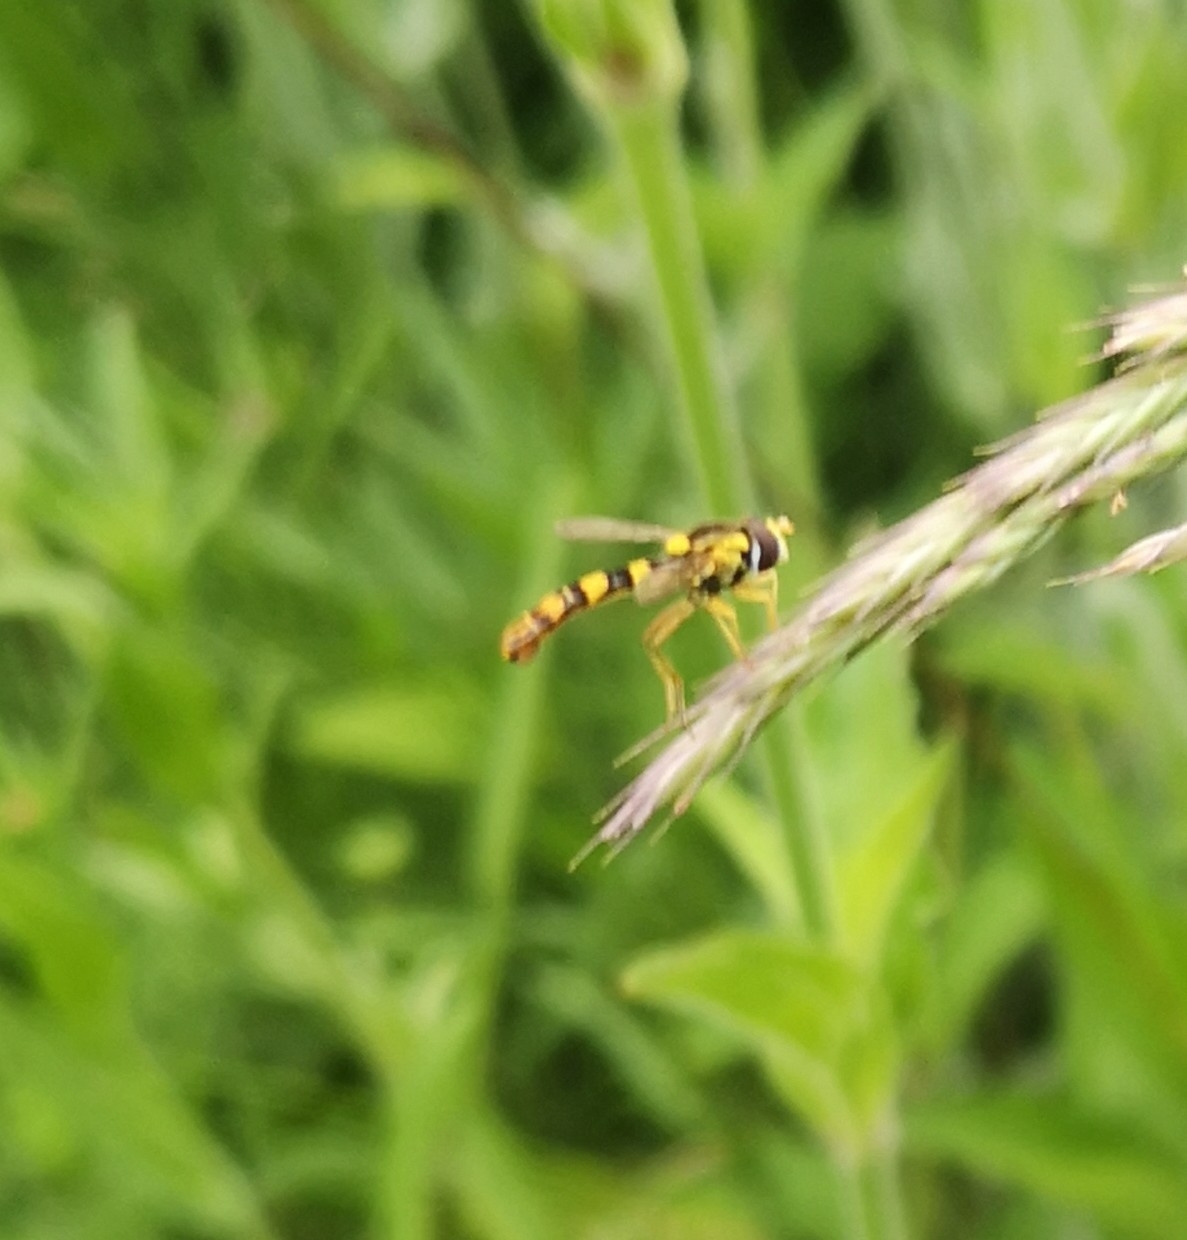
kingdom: Animalia
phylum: Arthropoda
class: Insecta
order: Diptera
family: Syrphidae
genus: Sphaerophoria
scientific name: Sphaerophoria scripta
